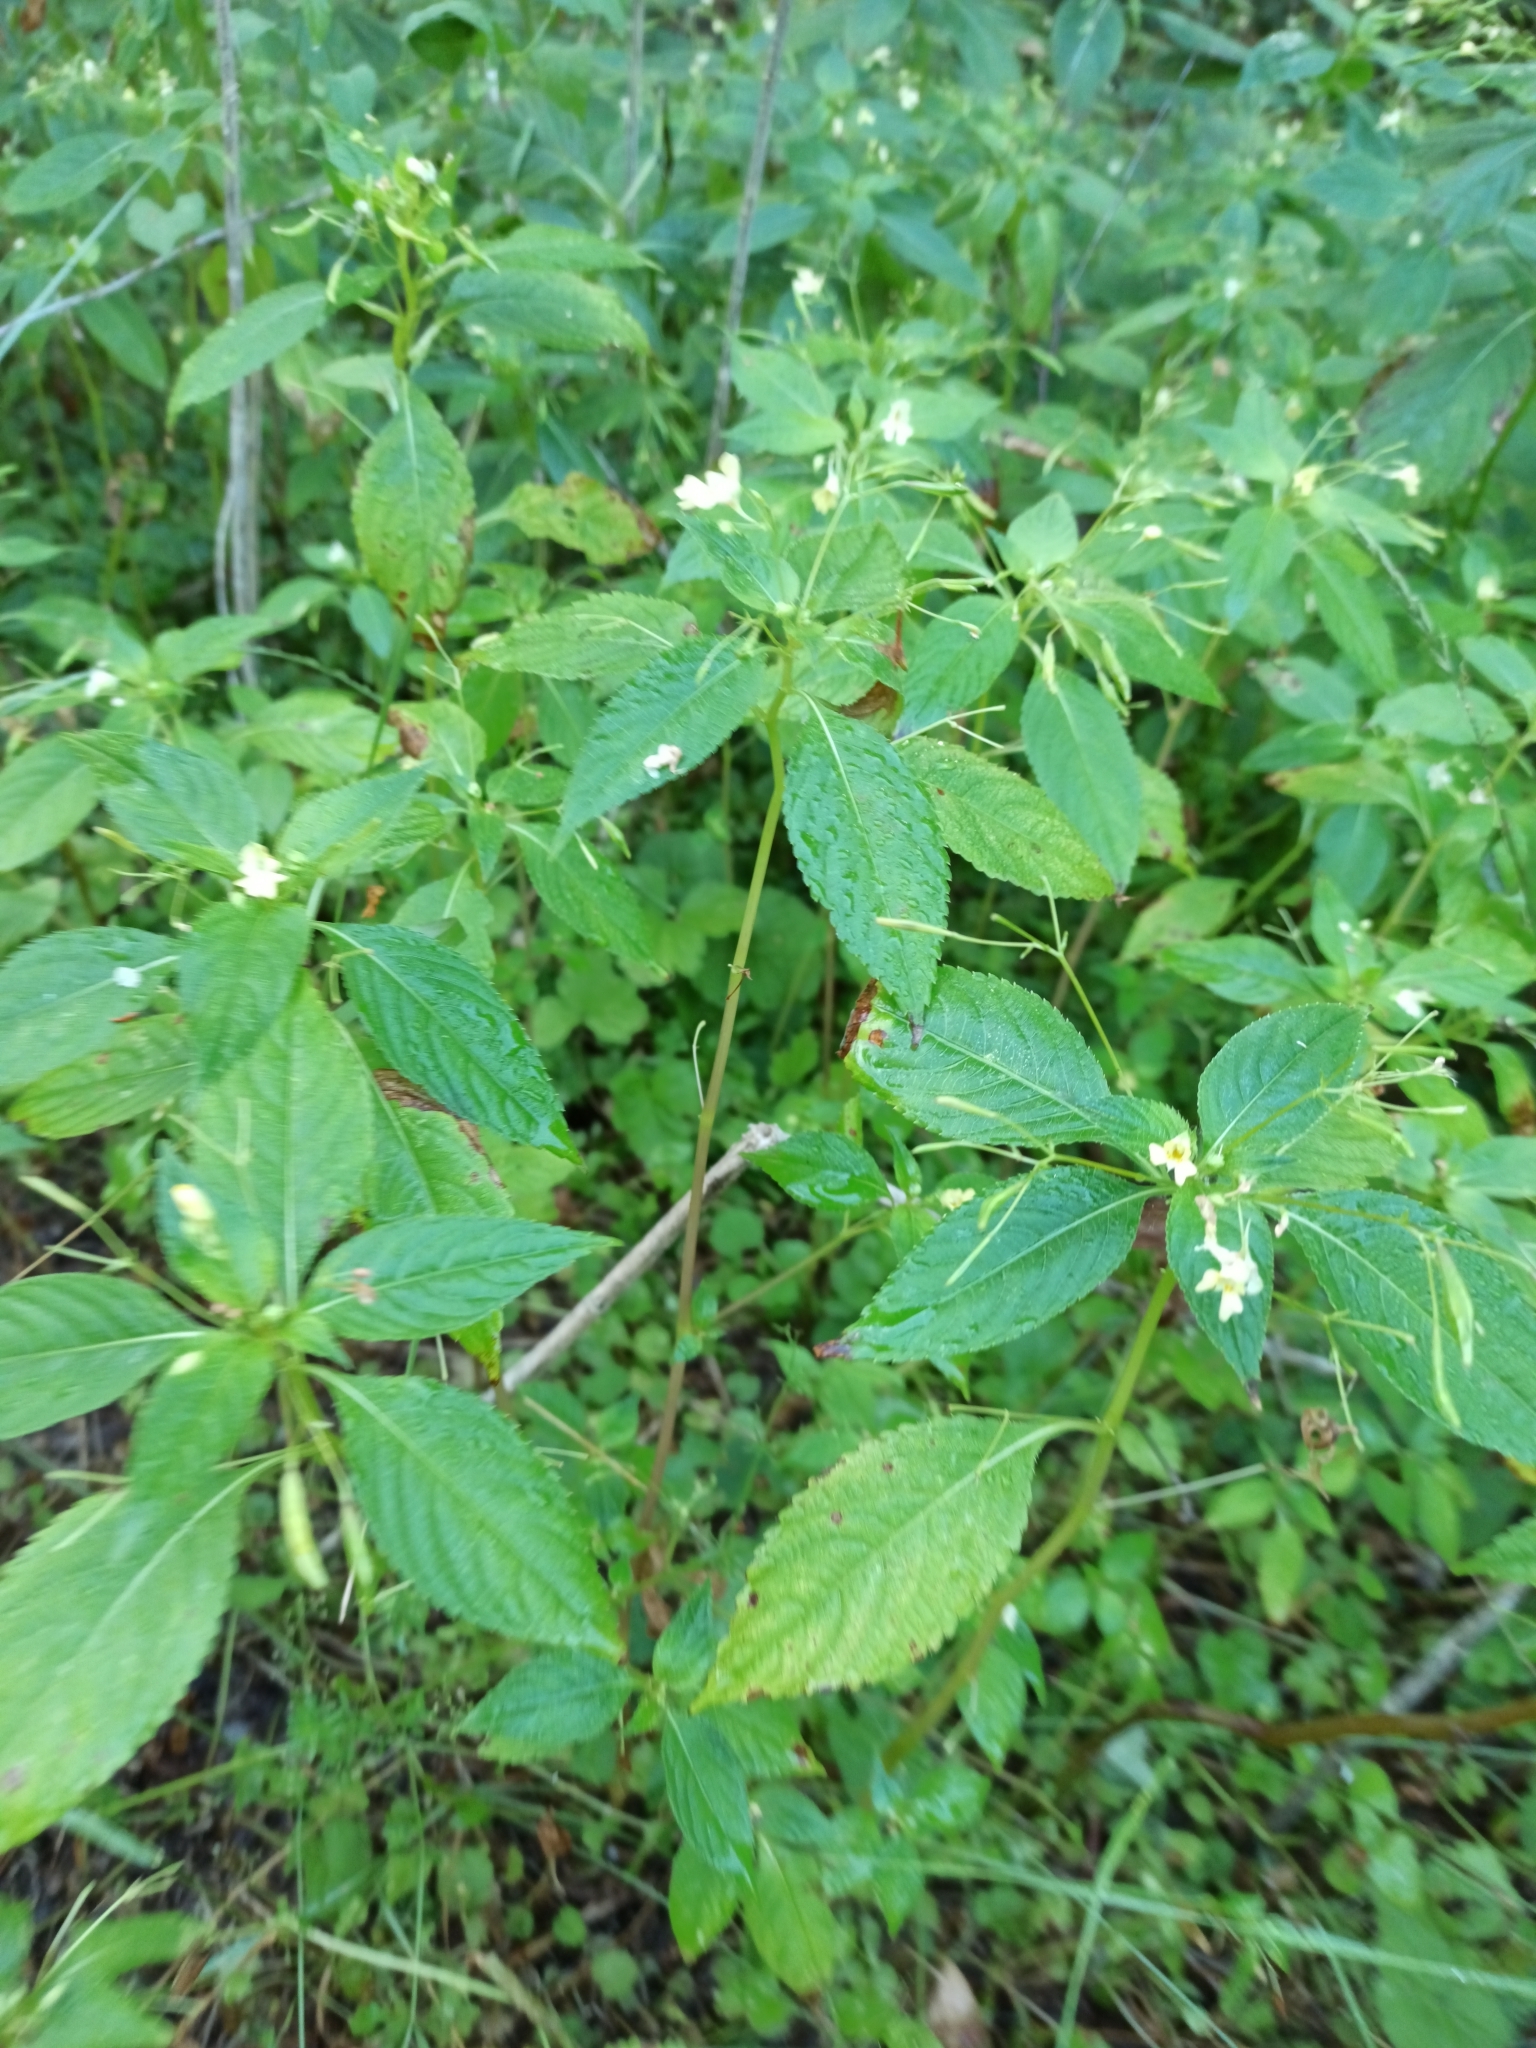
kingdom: Plantae
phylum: Tracheophyta
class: Magnoliopsida
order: Ericales
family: Balsaminaceae
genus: Impatiens
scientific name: Impatiens parviflora
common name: Small balsam
